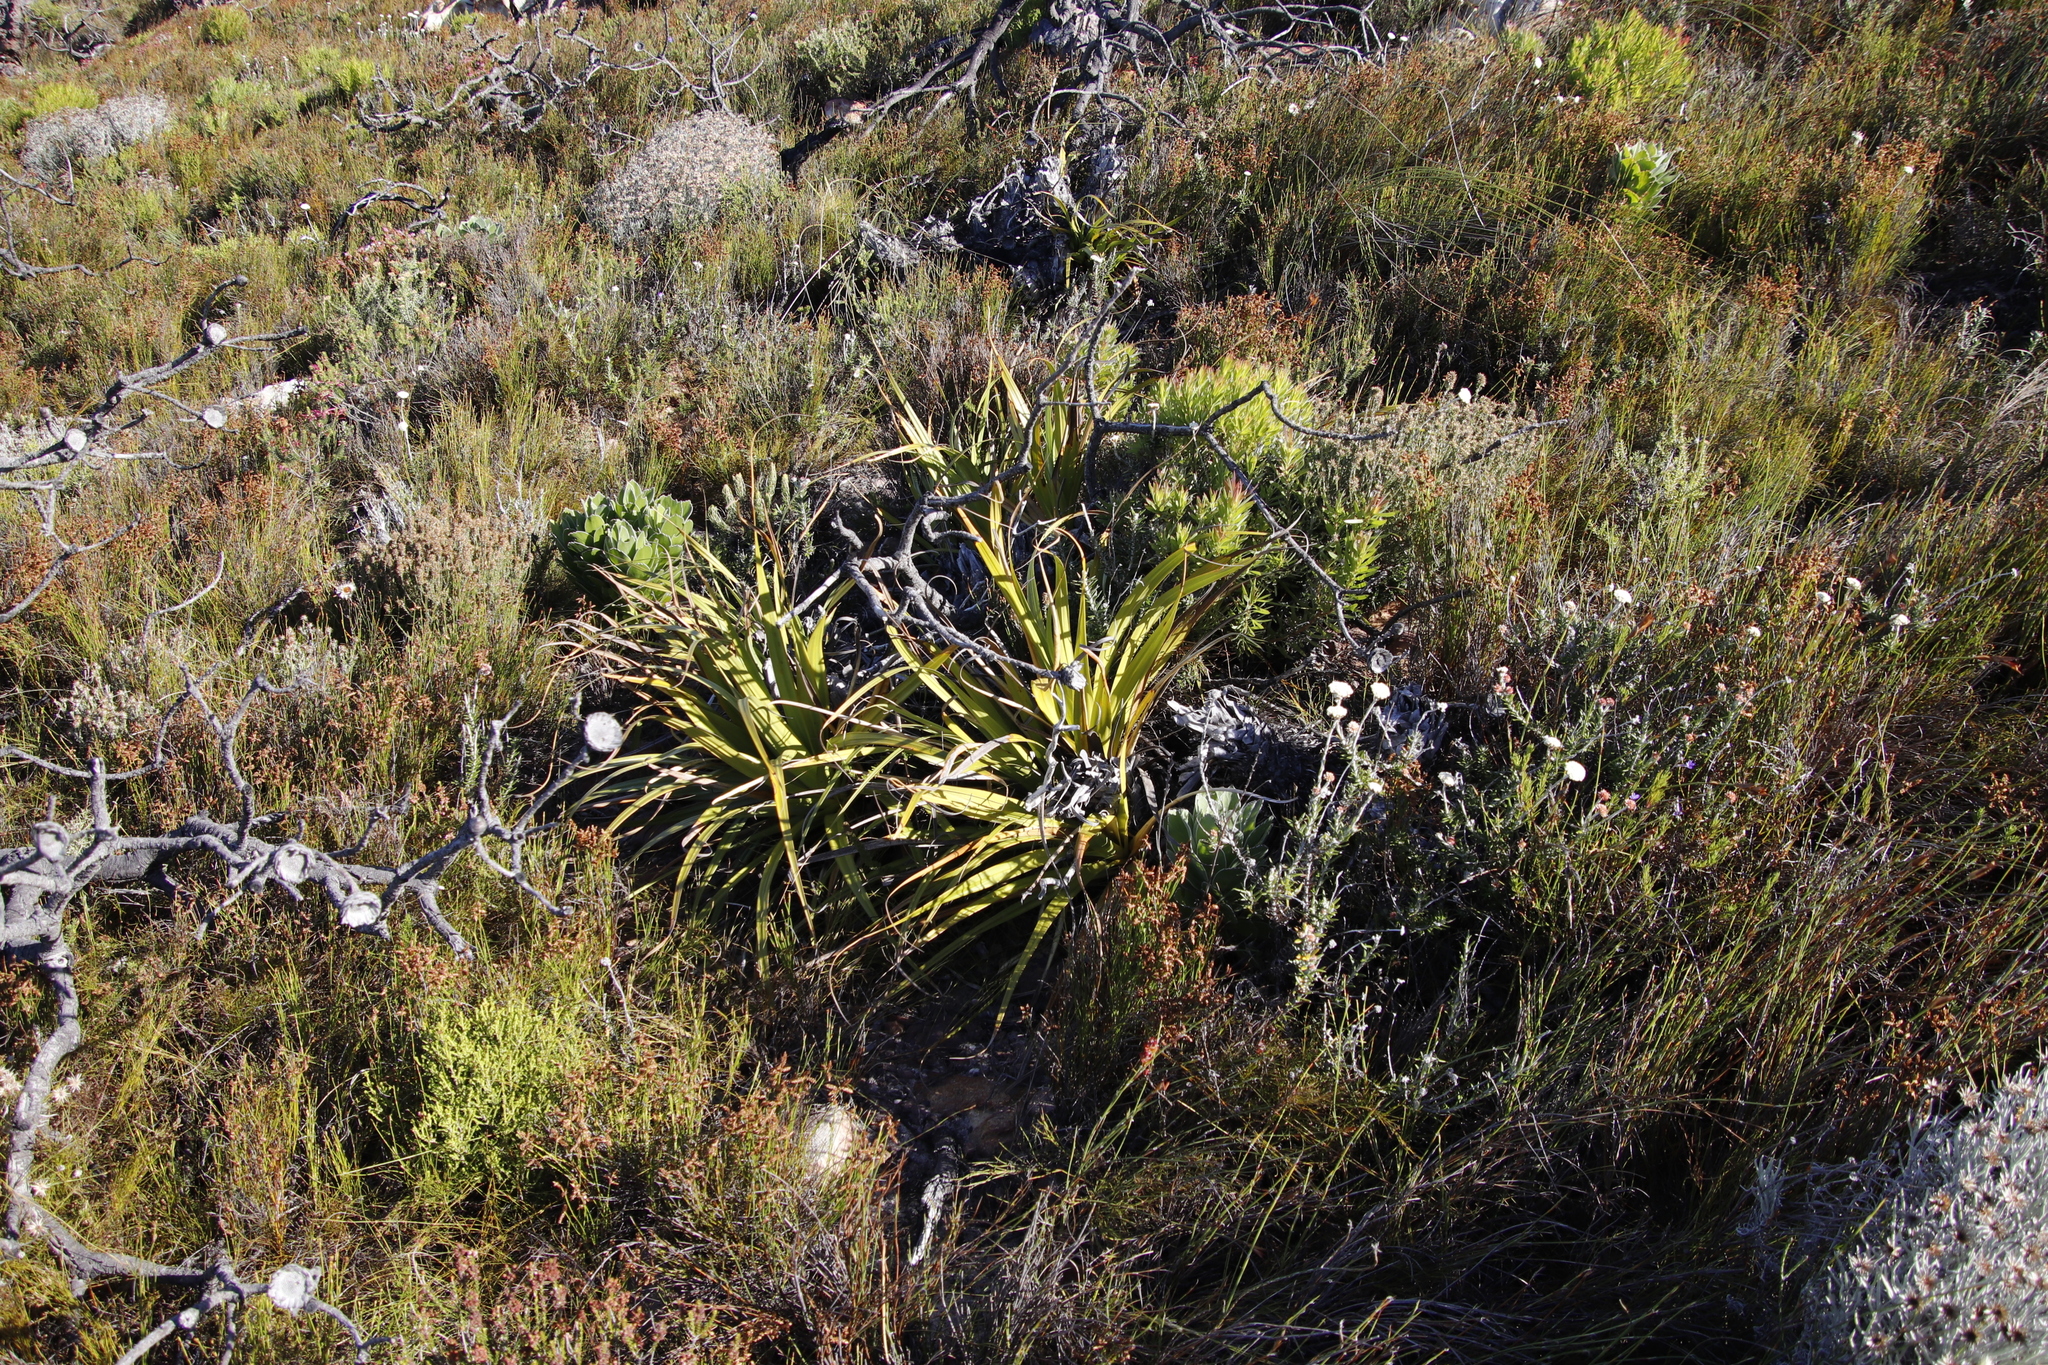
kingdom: Plantae
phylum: Tracheophyta
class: Liliopsida
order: Poales
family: Cyperaceae
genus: Tetraria
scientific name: Tetraria thermalis
